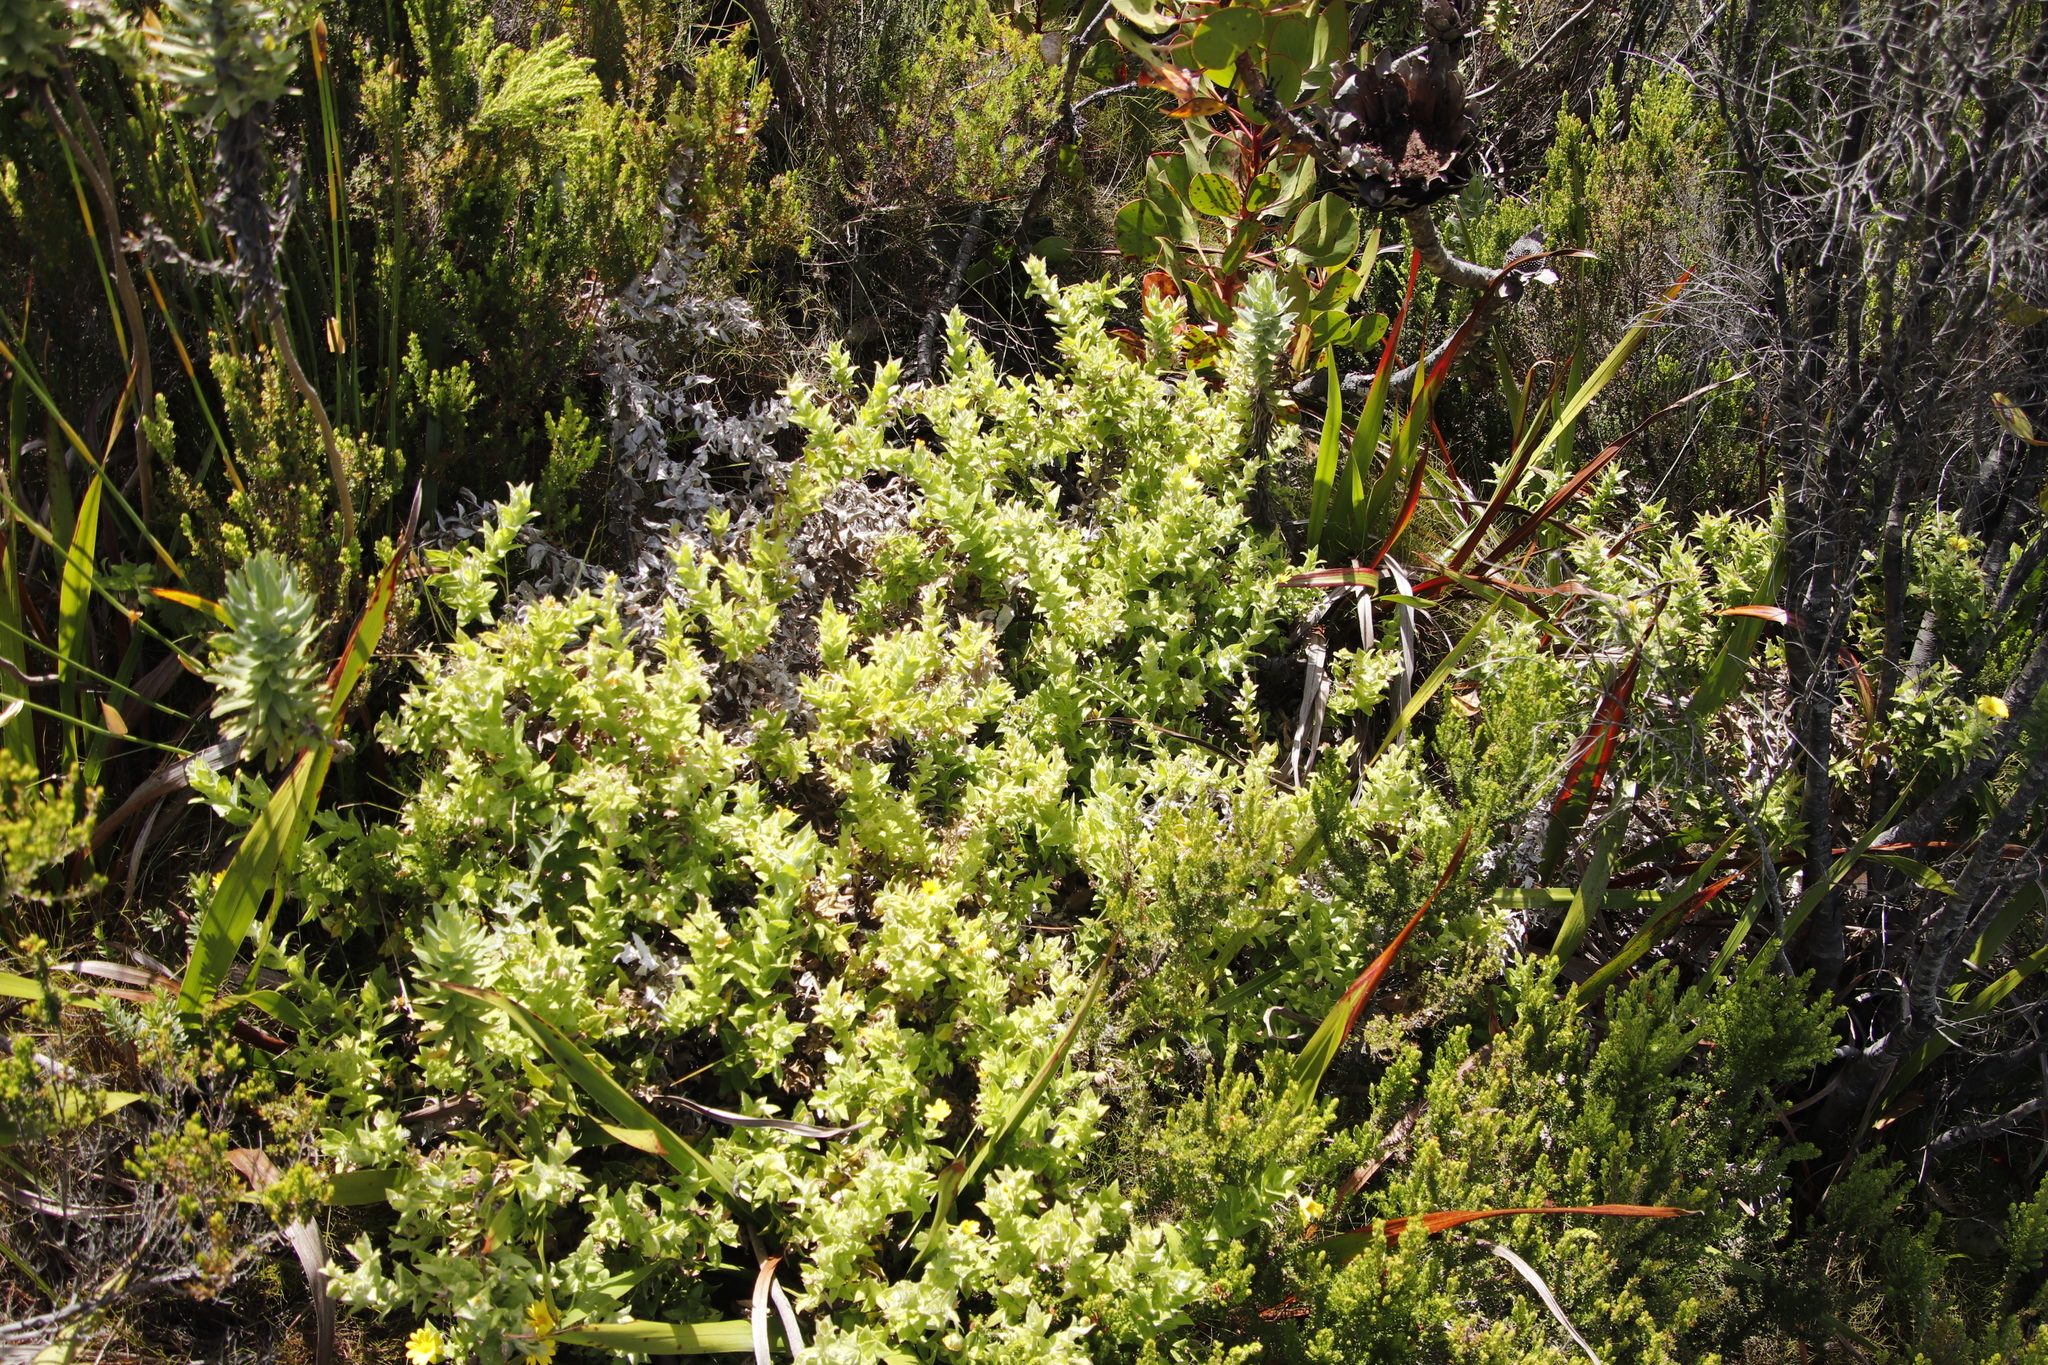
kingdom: Plantae
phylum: Tracheophyta
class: Magnoliopsida
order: Asterales
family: Asteraceae
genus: Osteospermum
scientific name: Osteospermum ilicifolium
